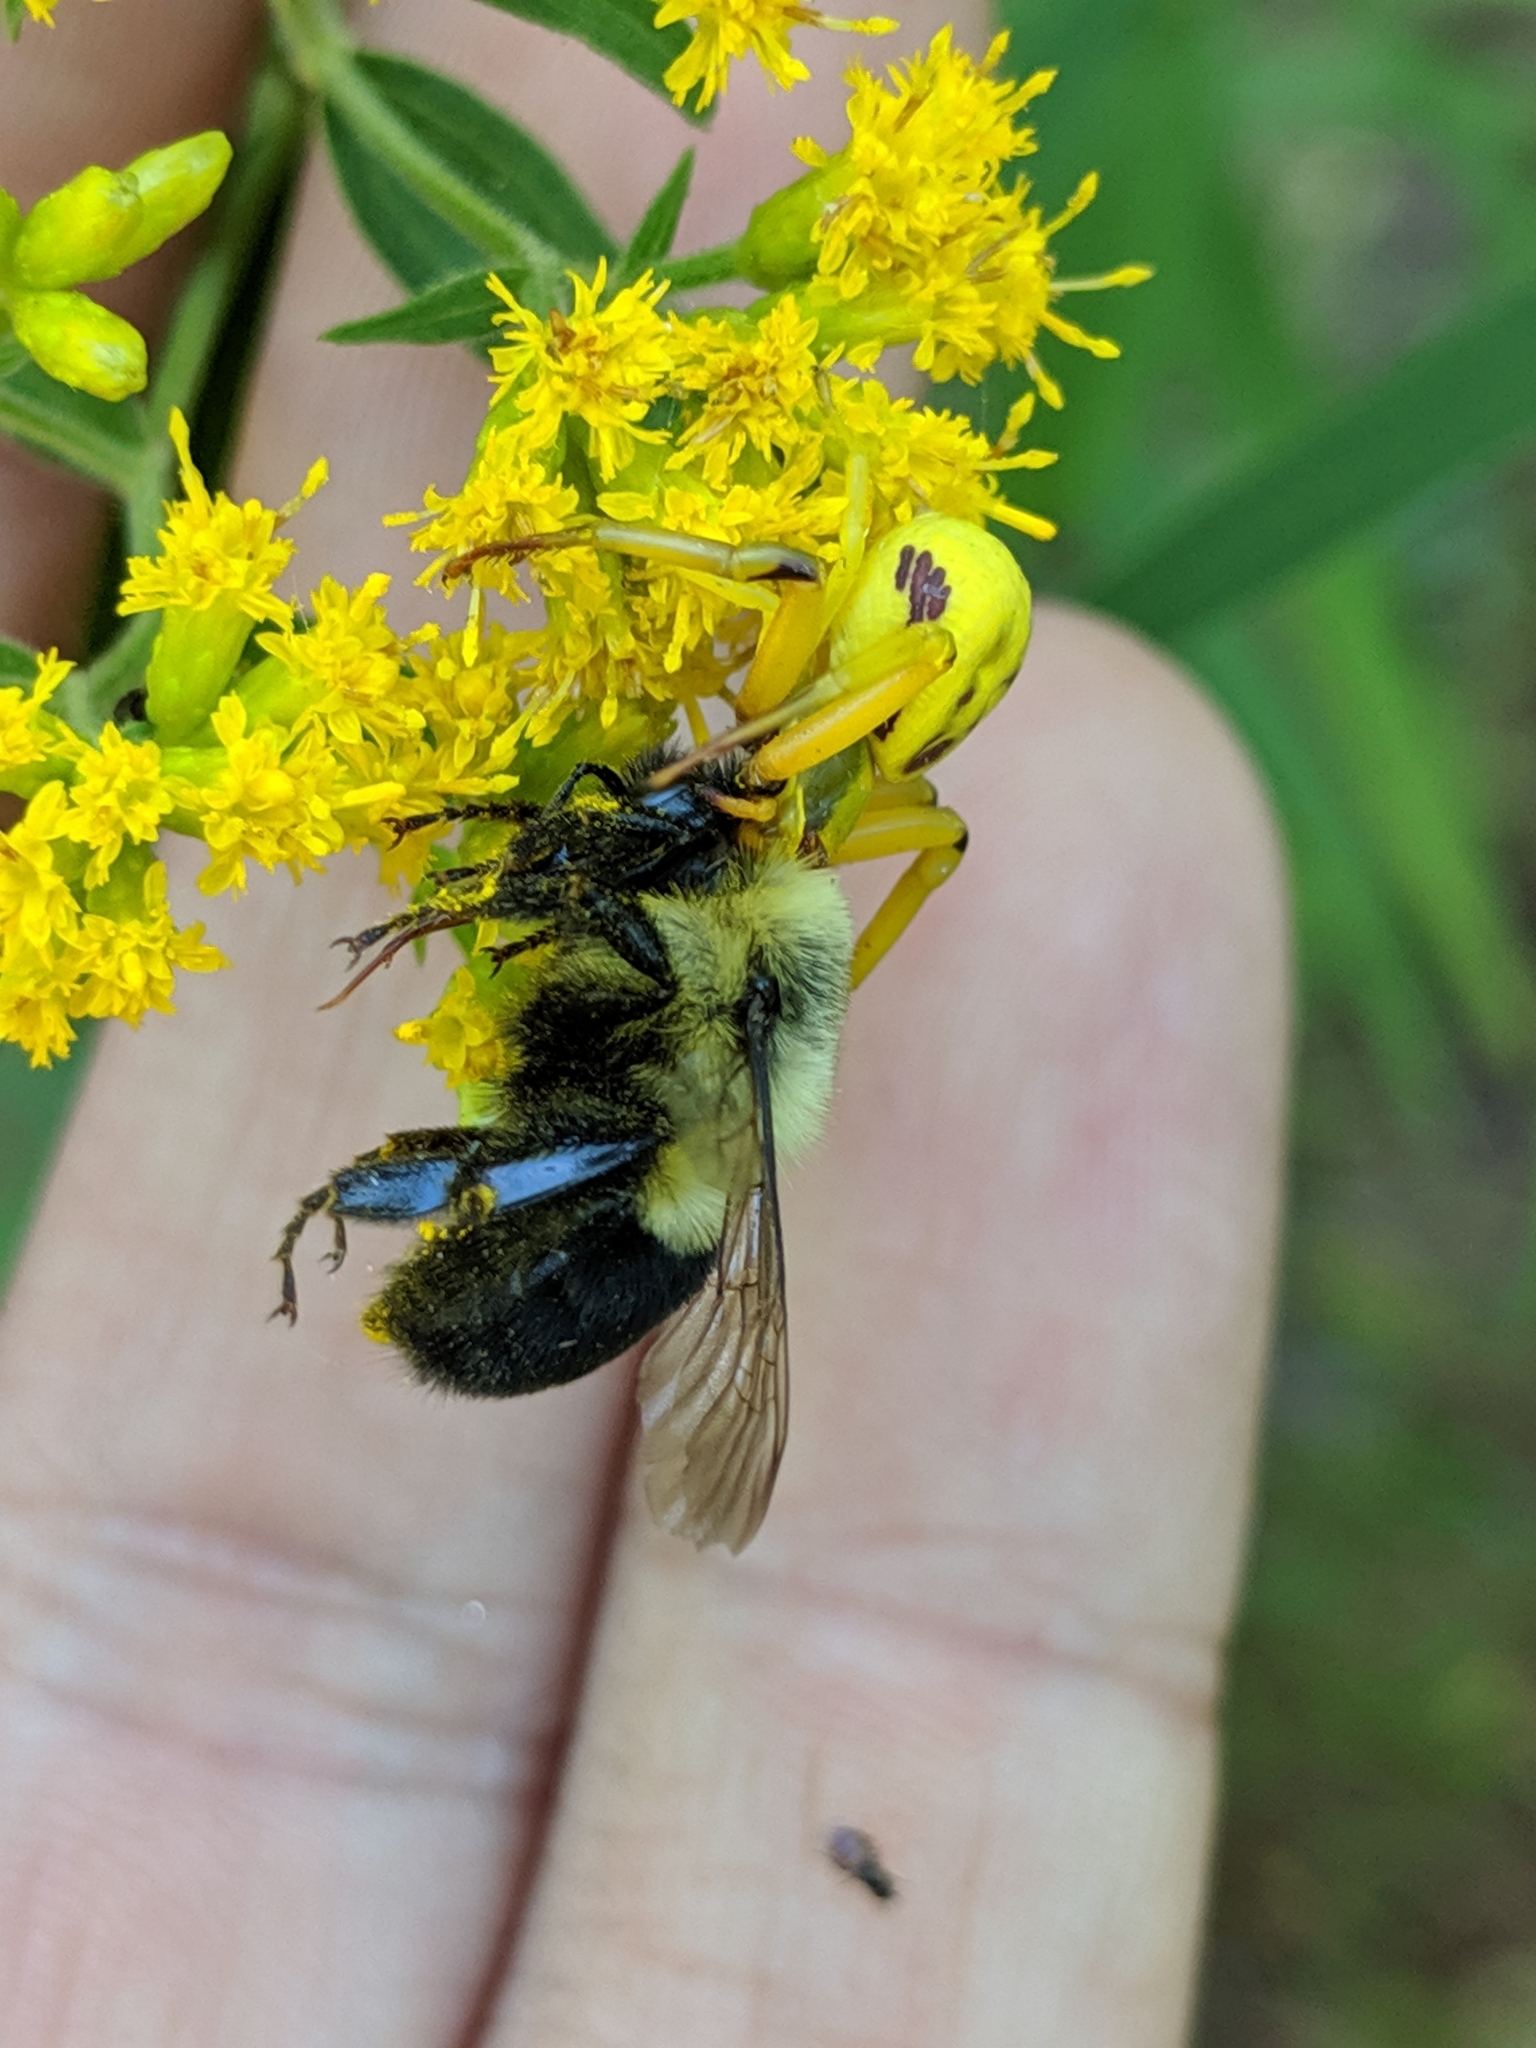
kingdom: Animalia
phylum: Arthropoda
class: Insecta
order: Hymenoptera
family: Apidae
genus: Bombus
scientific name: Bombus impatiens
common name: Common eastern bumble bee
